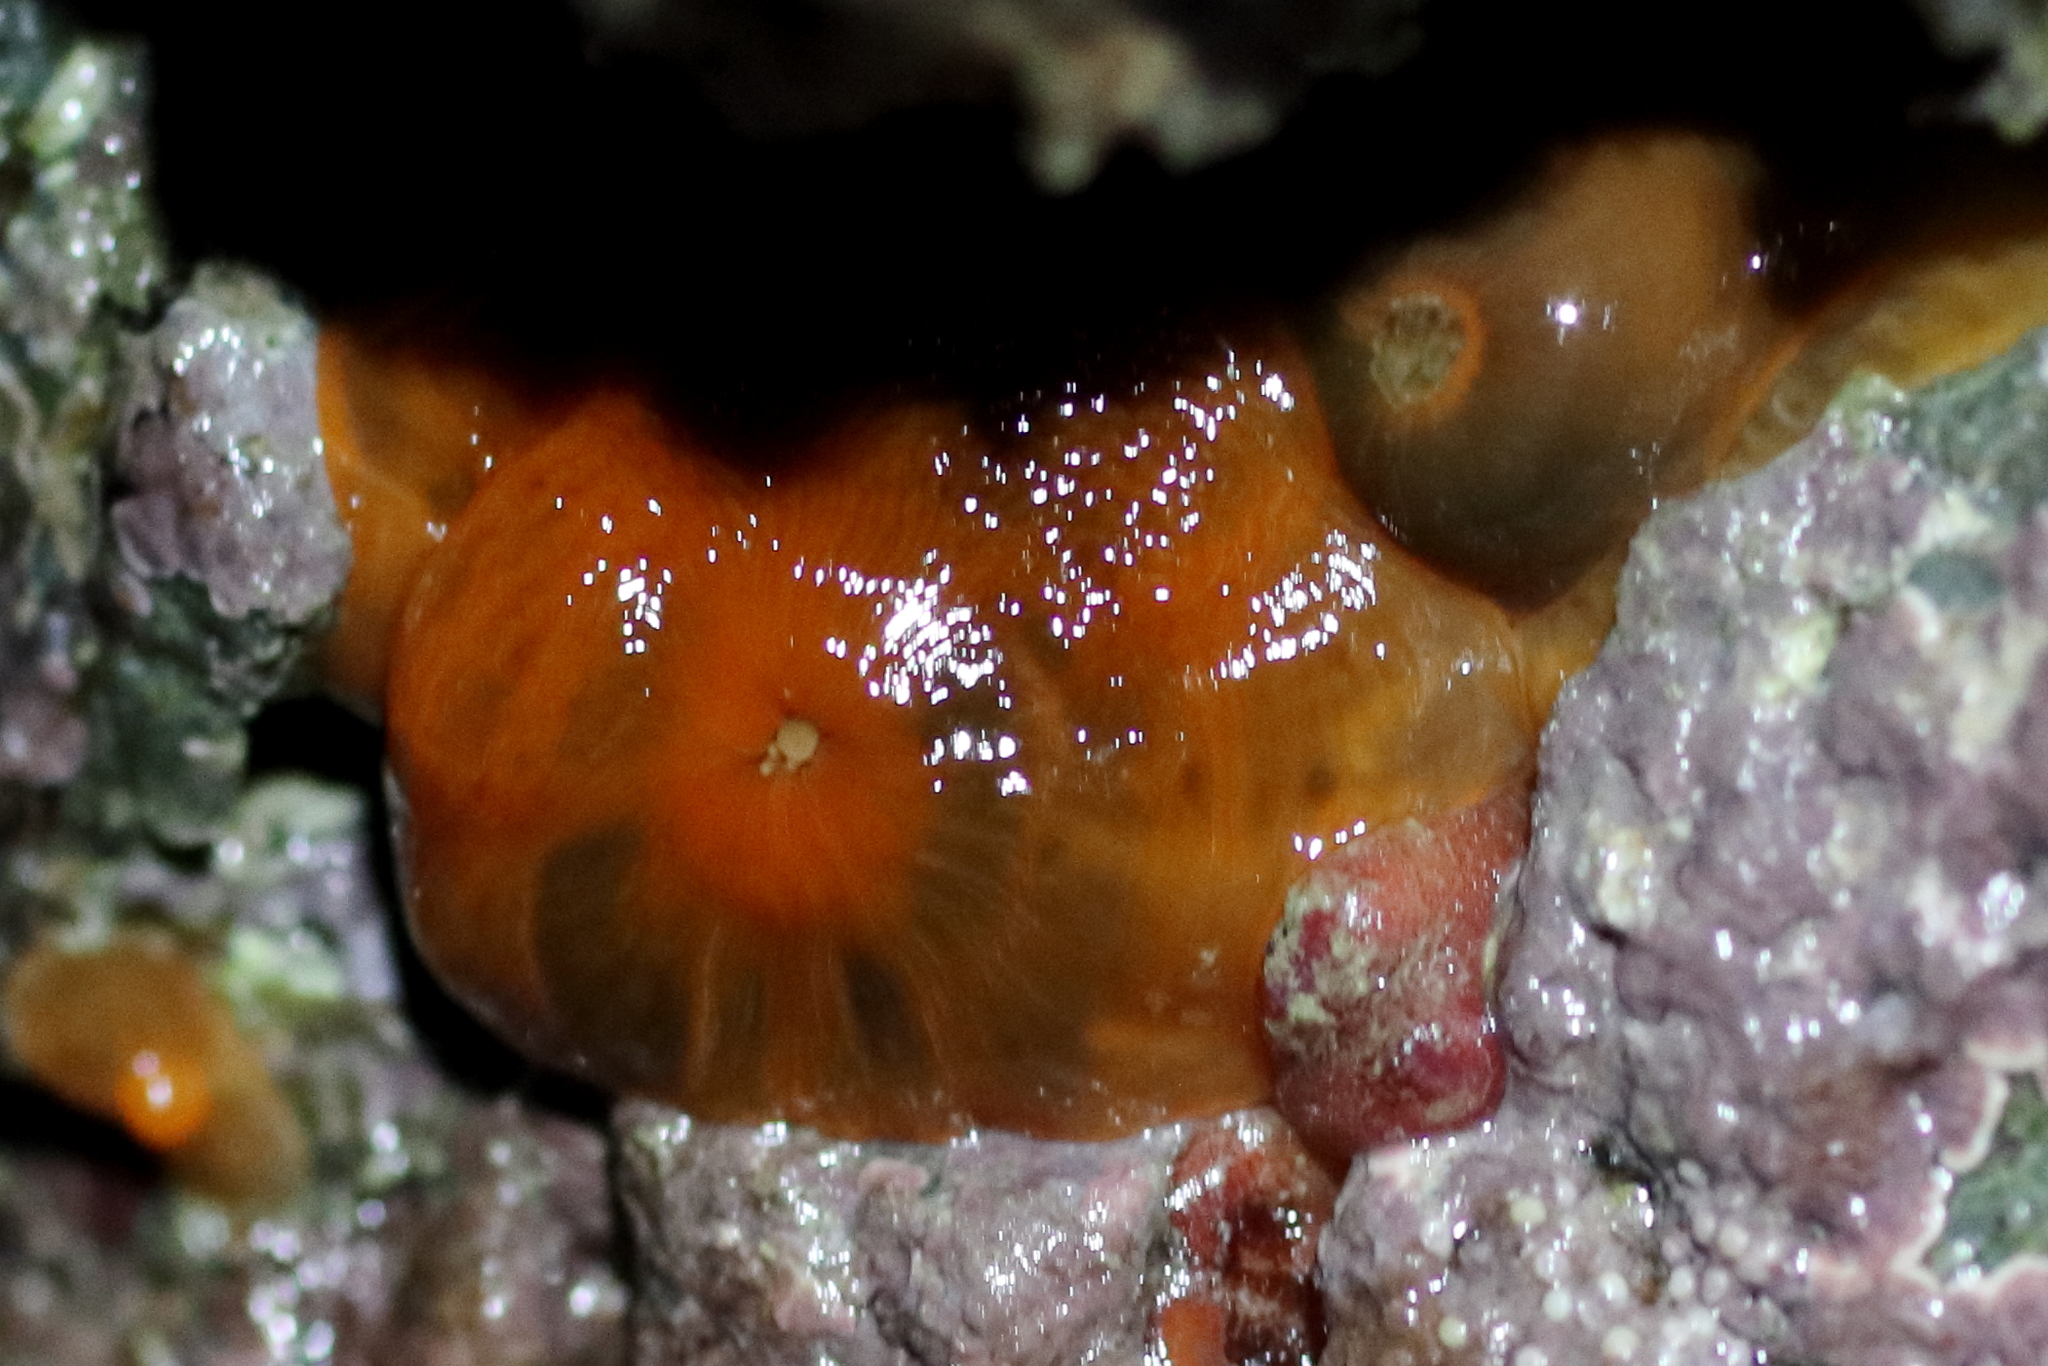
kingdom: Animalia
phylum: Cnidaria
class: Anthozoa
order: Actiniaria
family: Metridiidae
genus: Metridium
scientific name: Metridium senile
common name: Clonal plumose anemone
